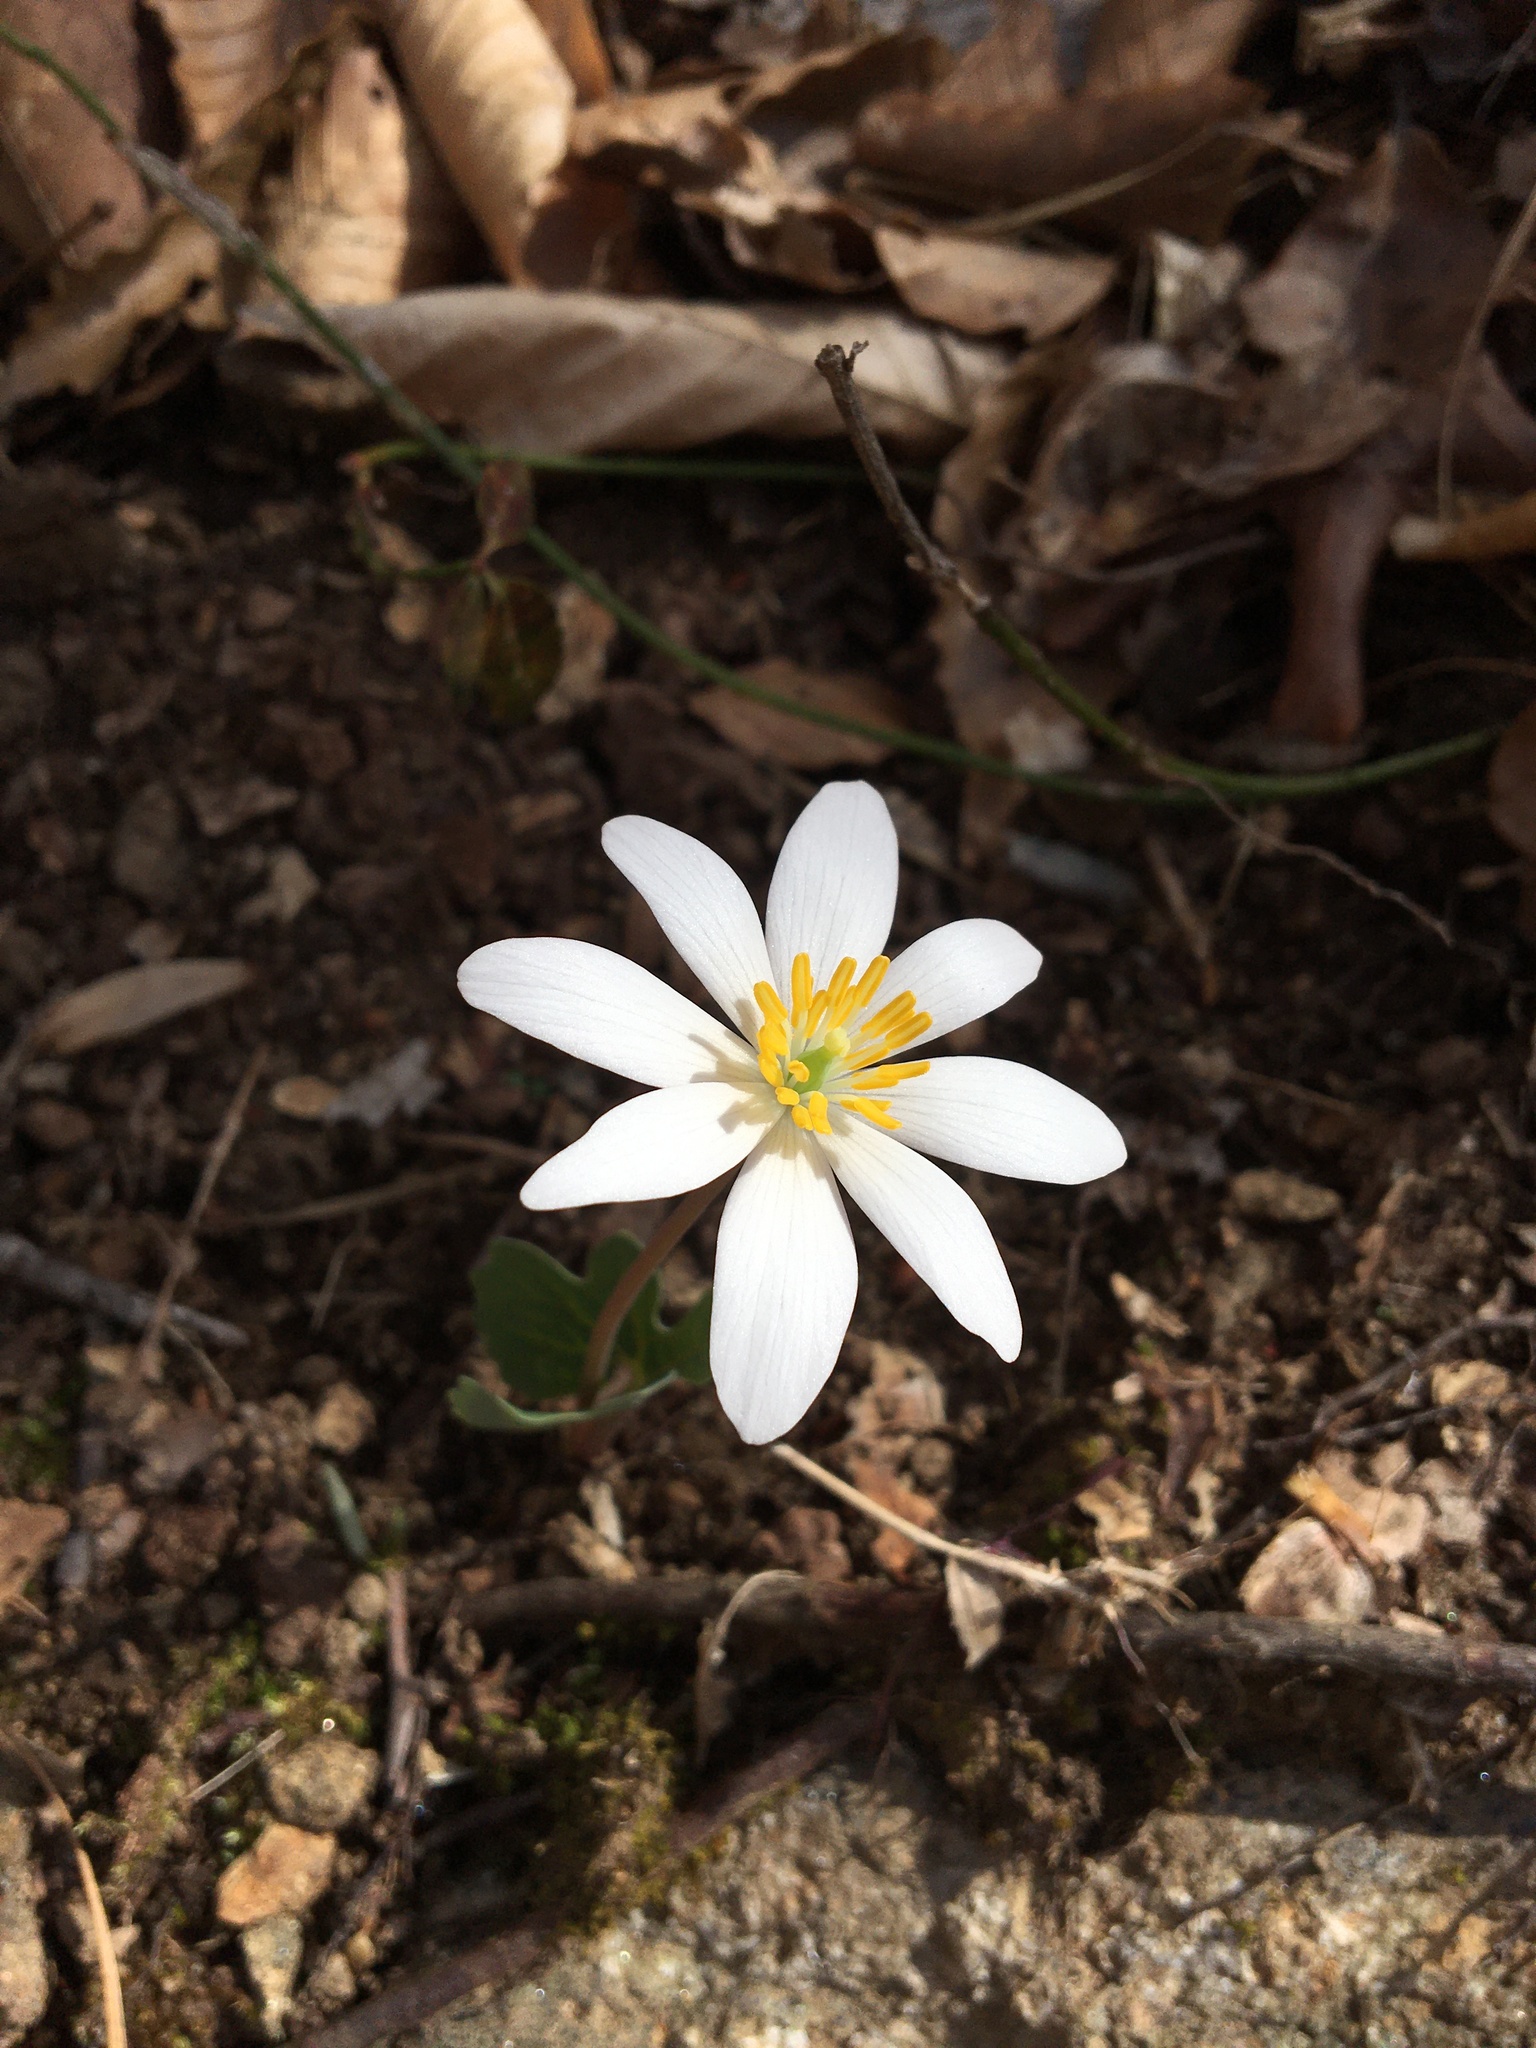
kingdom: Plantae
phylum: Tracheophyta
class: Magnoliopsida
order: Ranunculales
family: Papaveraceae
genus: Sanguinaria
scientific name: Sanguinaria canadensis
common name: Bloodroot
